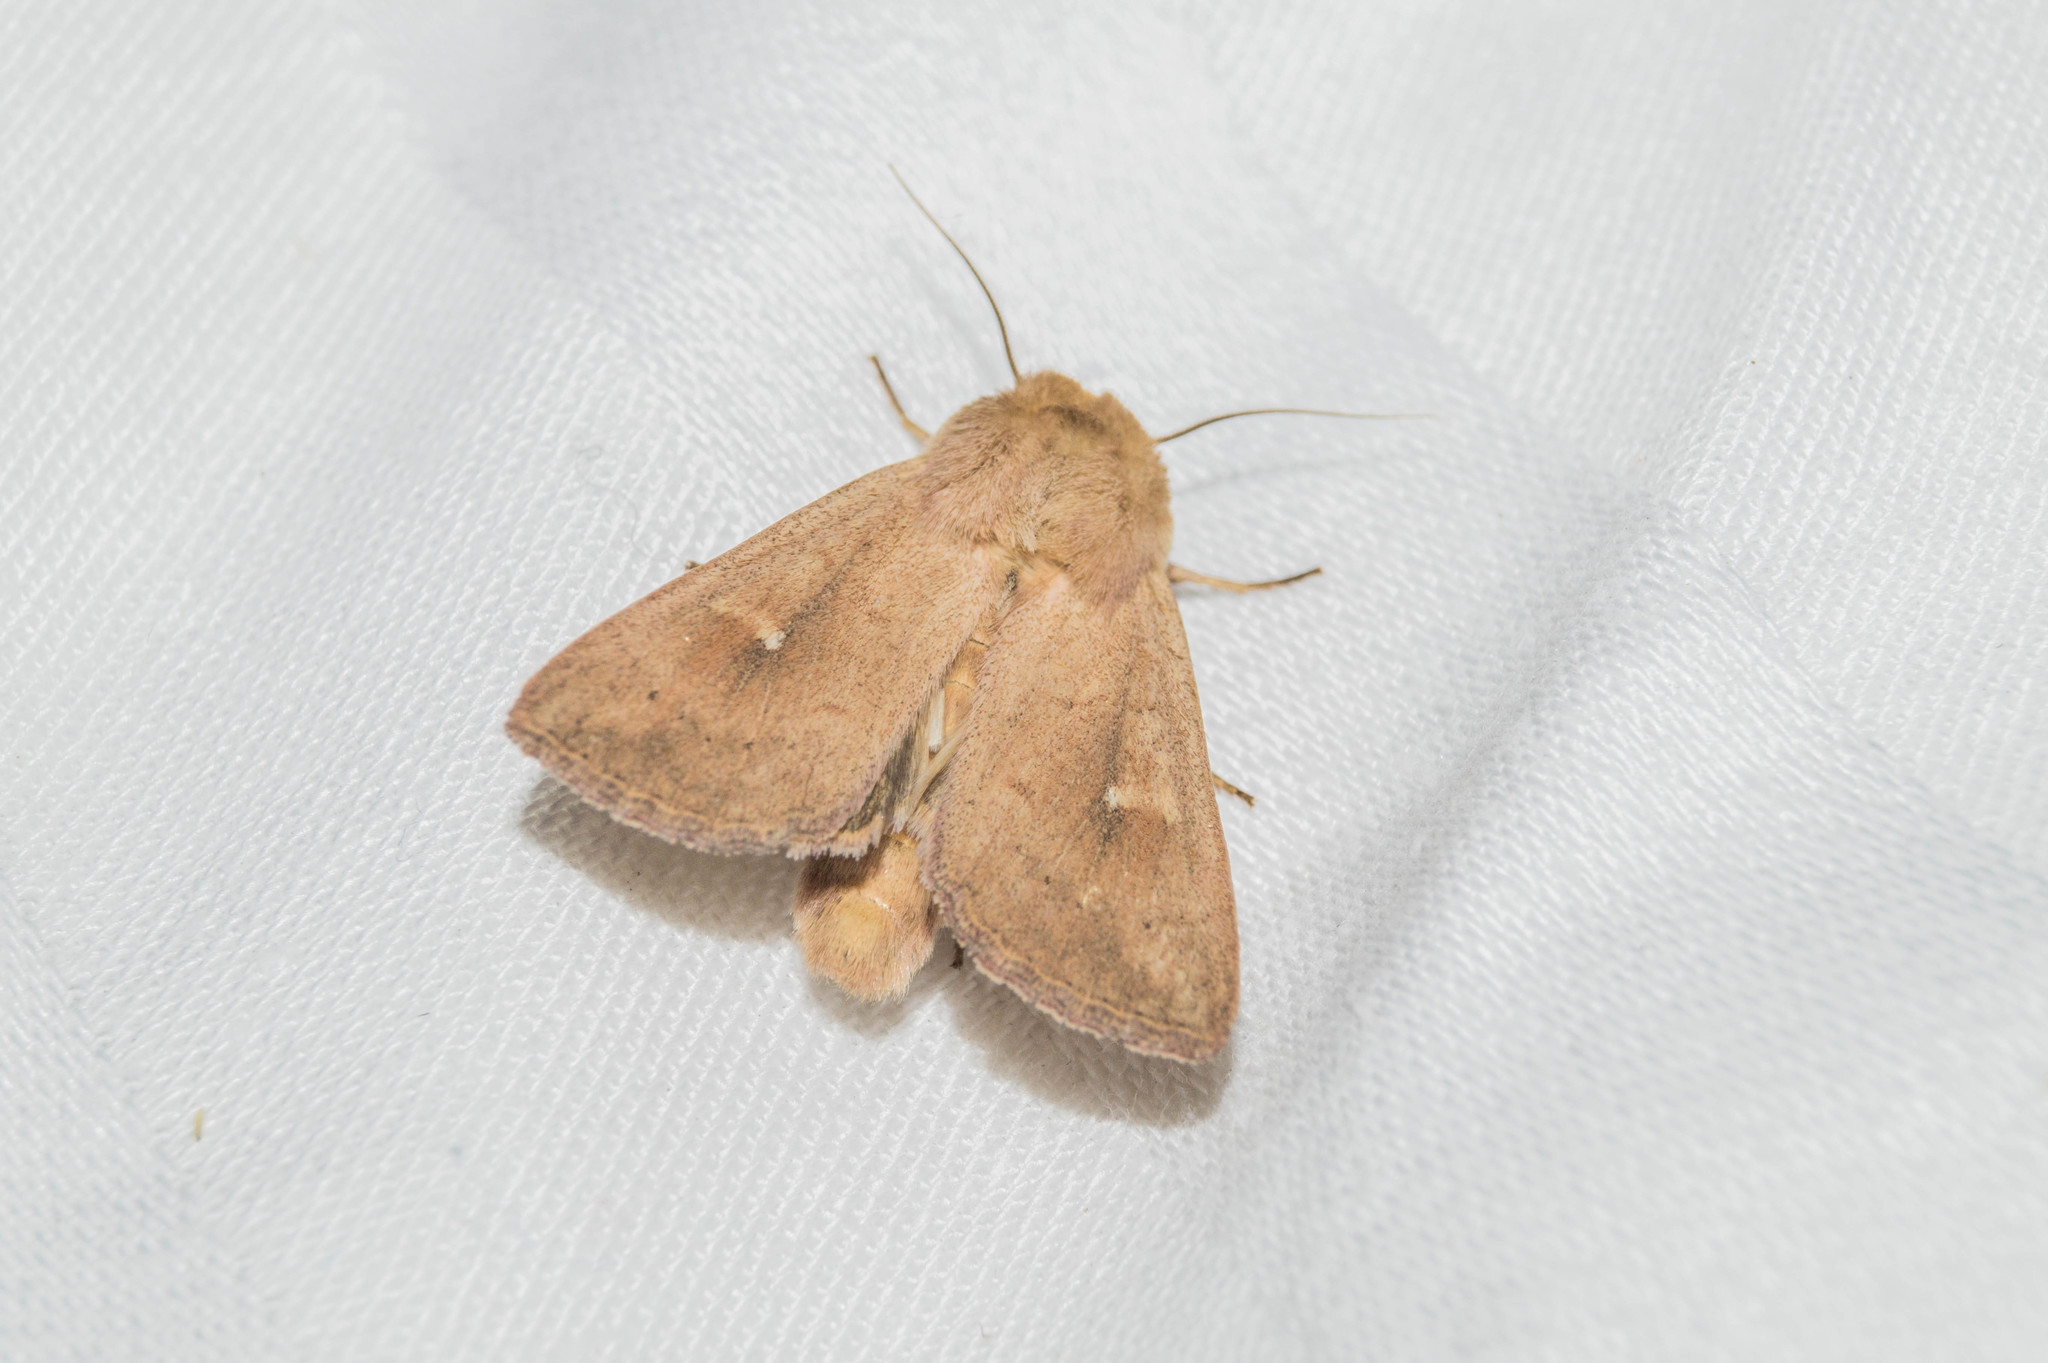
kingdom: Animalia
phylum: Arthropoda
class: Insecta
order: Lepidoptera
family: Noctuidae
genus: Mythimna
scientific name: Mythimna ferrago
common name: Clay
